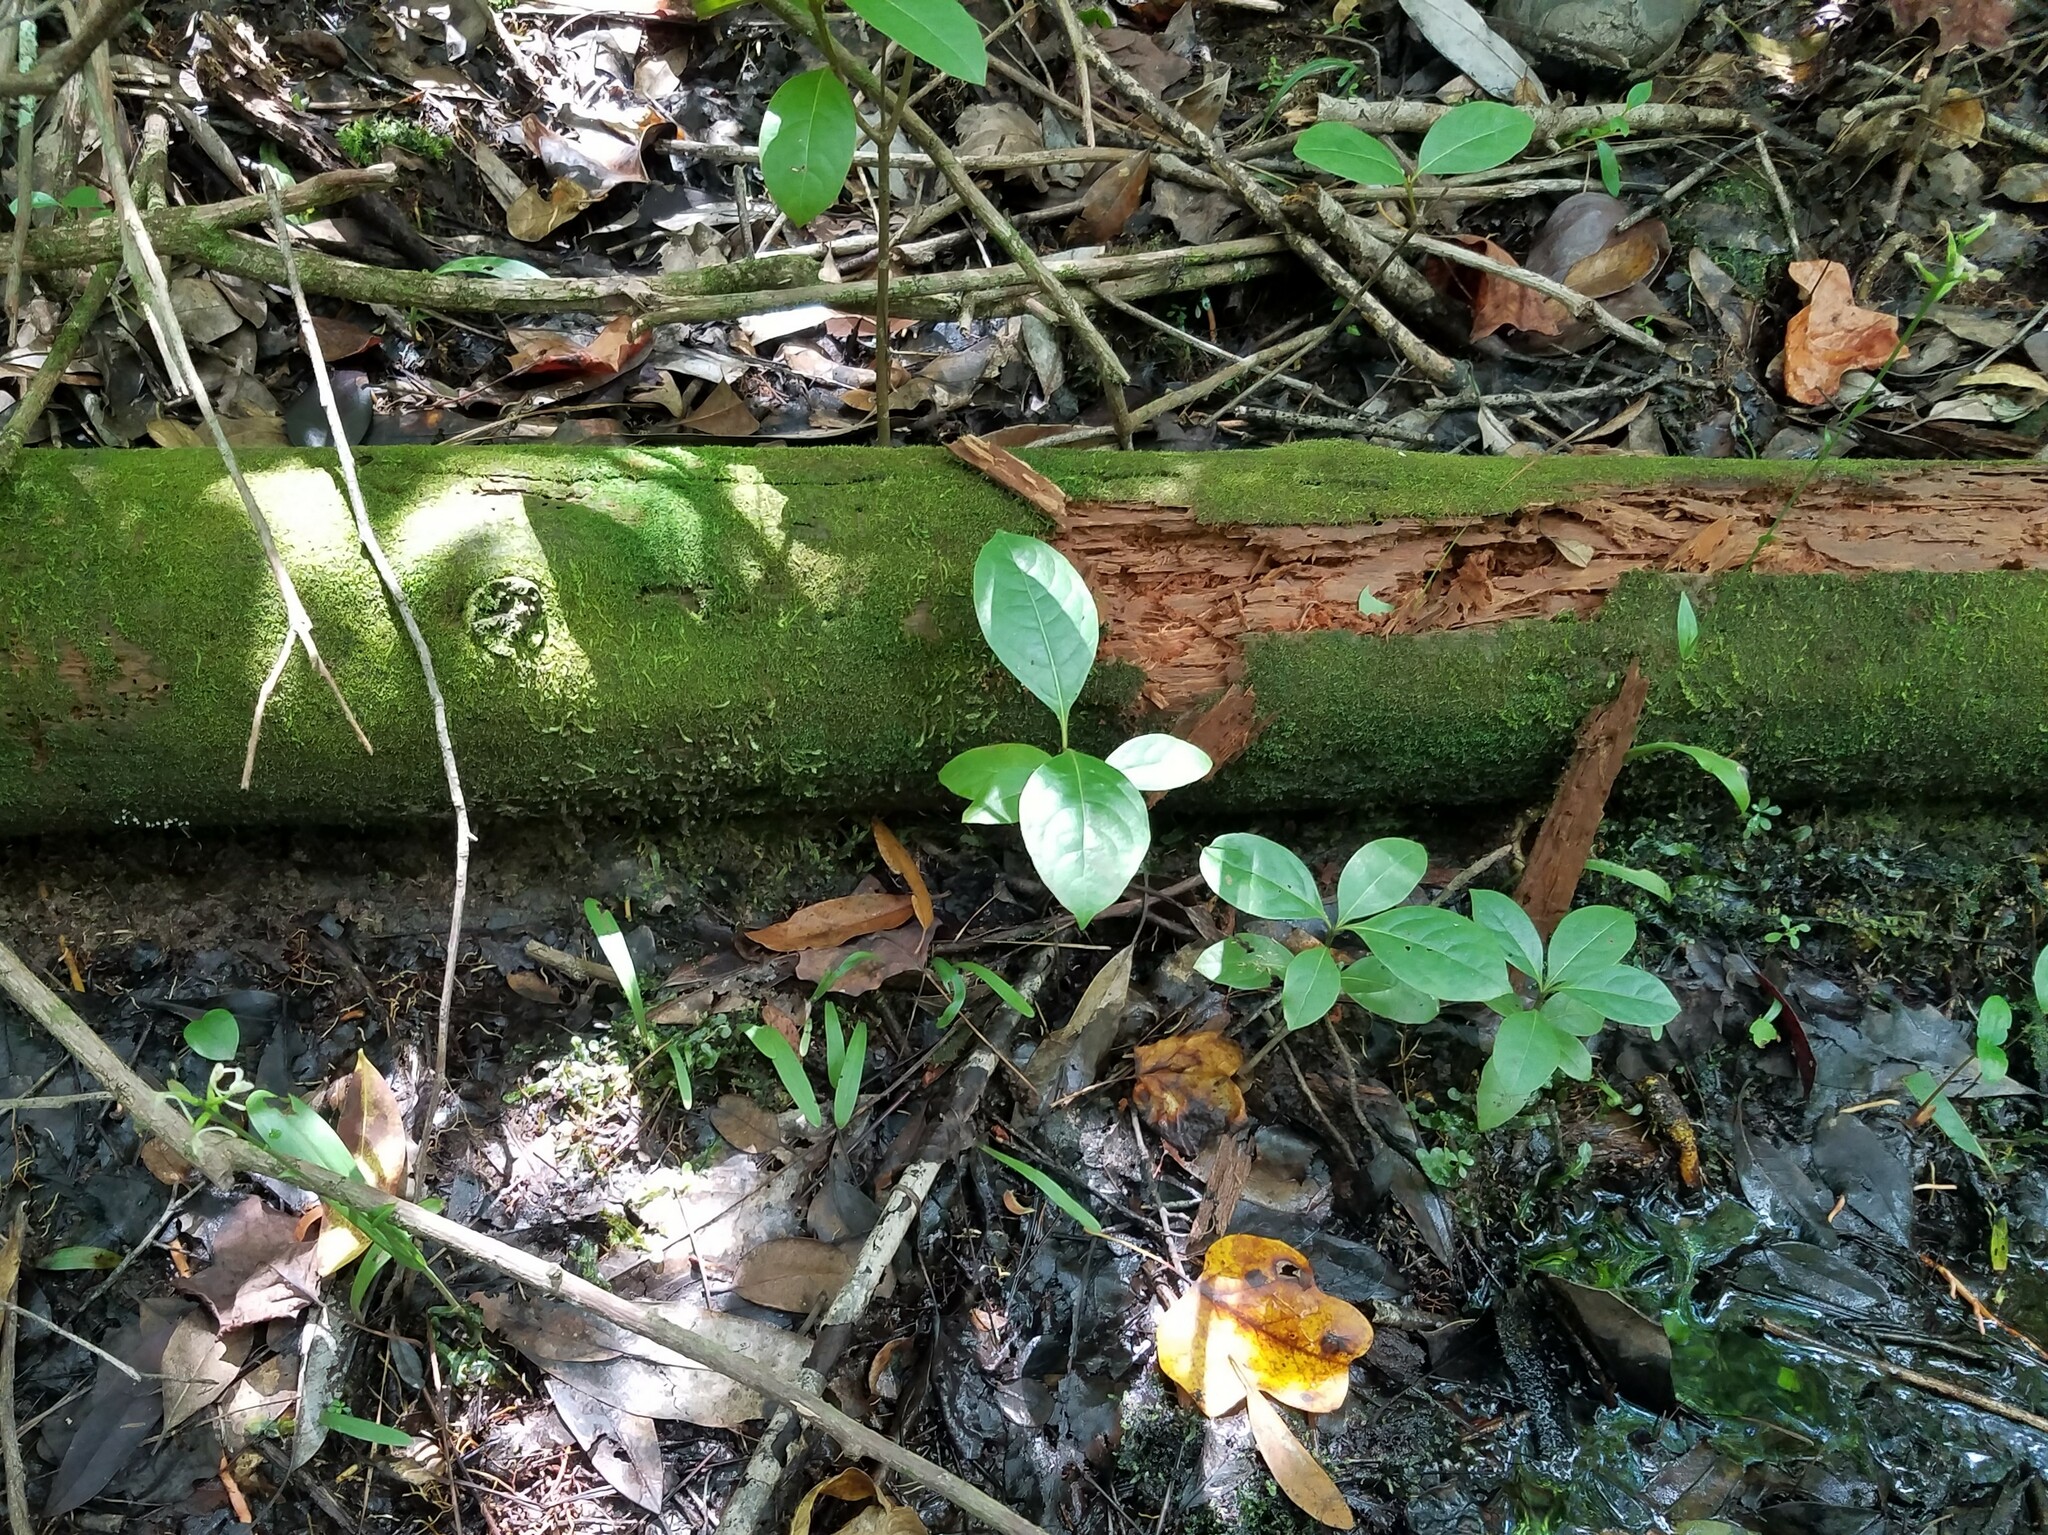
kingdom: Plantae
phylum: Tracheophyta
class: Liliopsida
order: Asparagales
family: Orchidaceae
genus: Platanthera
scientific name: Platanthera clavellata
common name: Club-spur orchid
